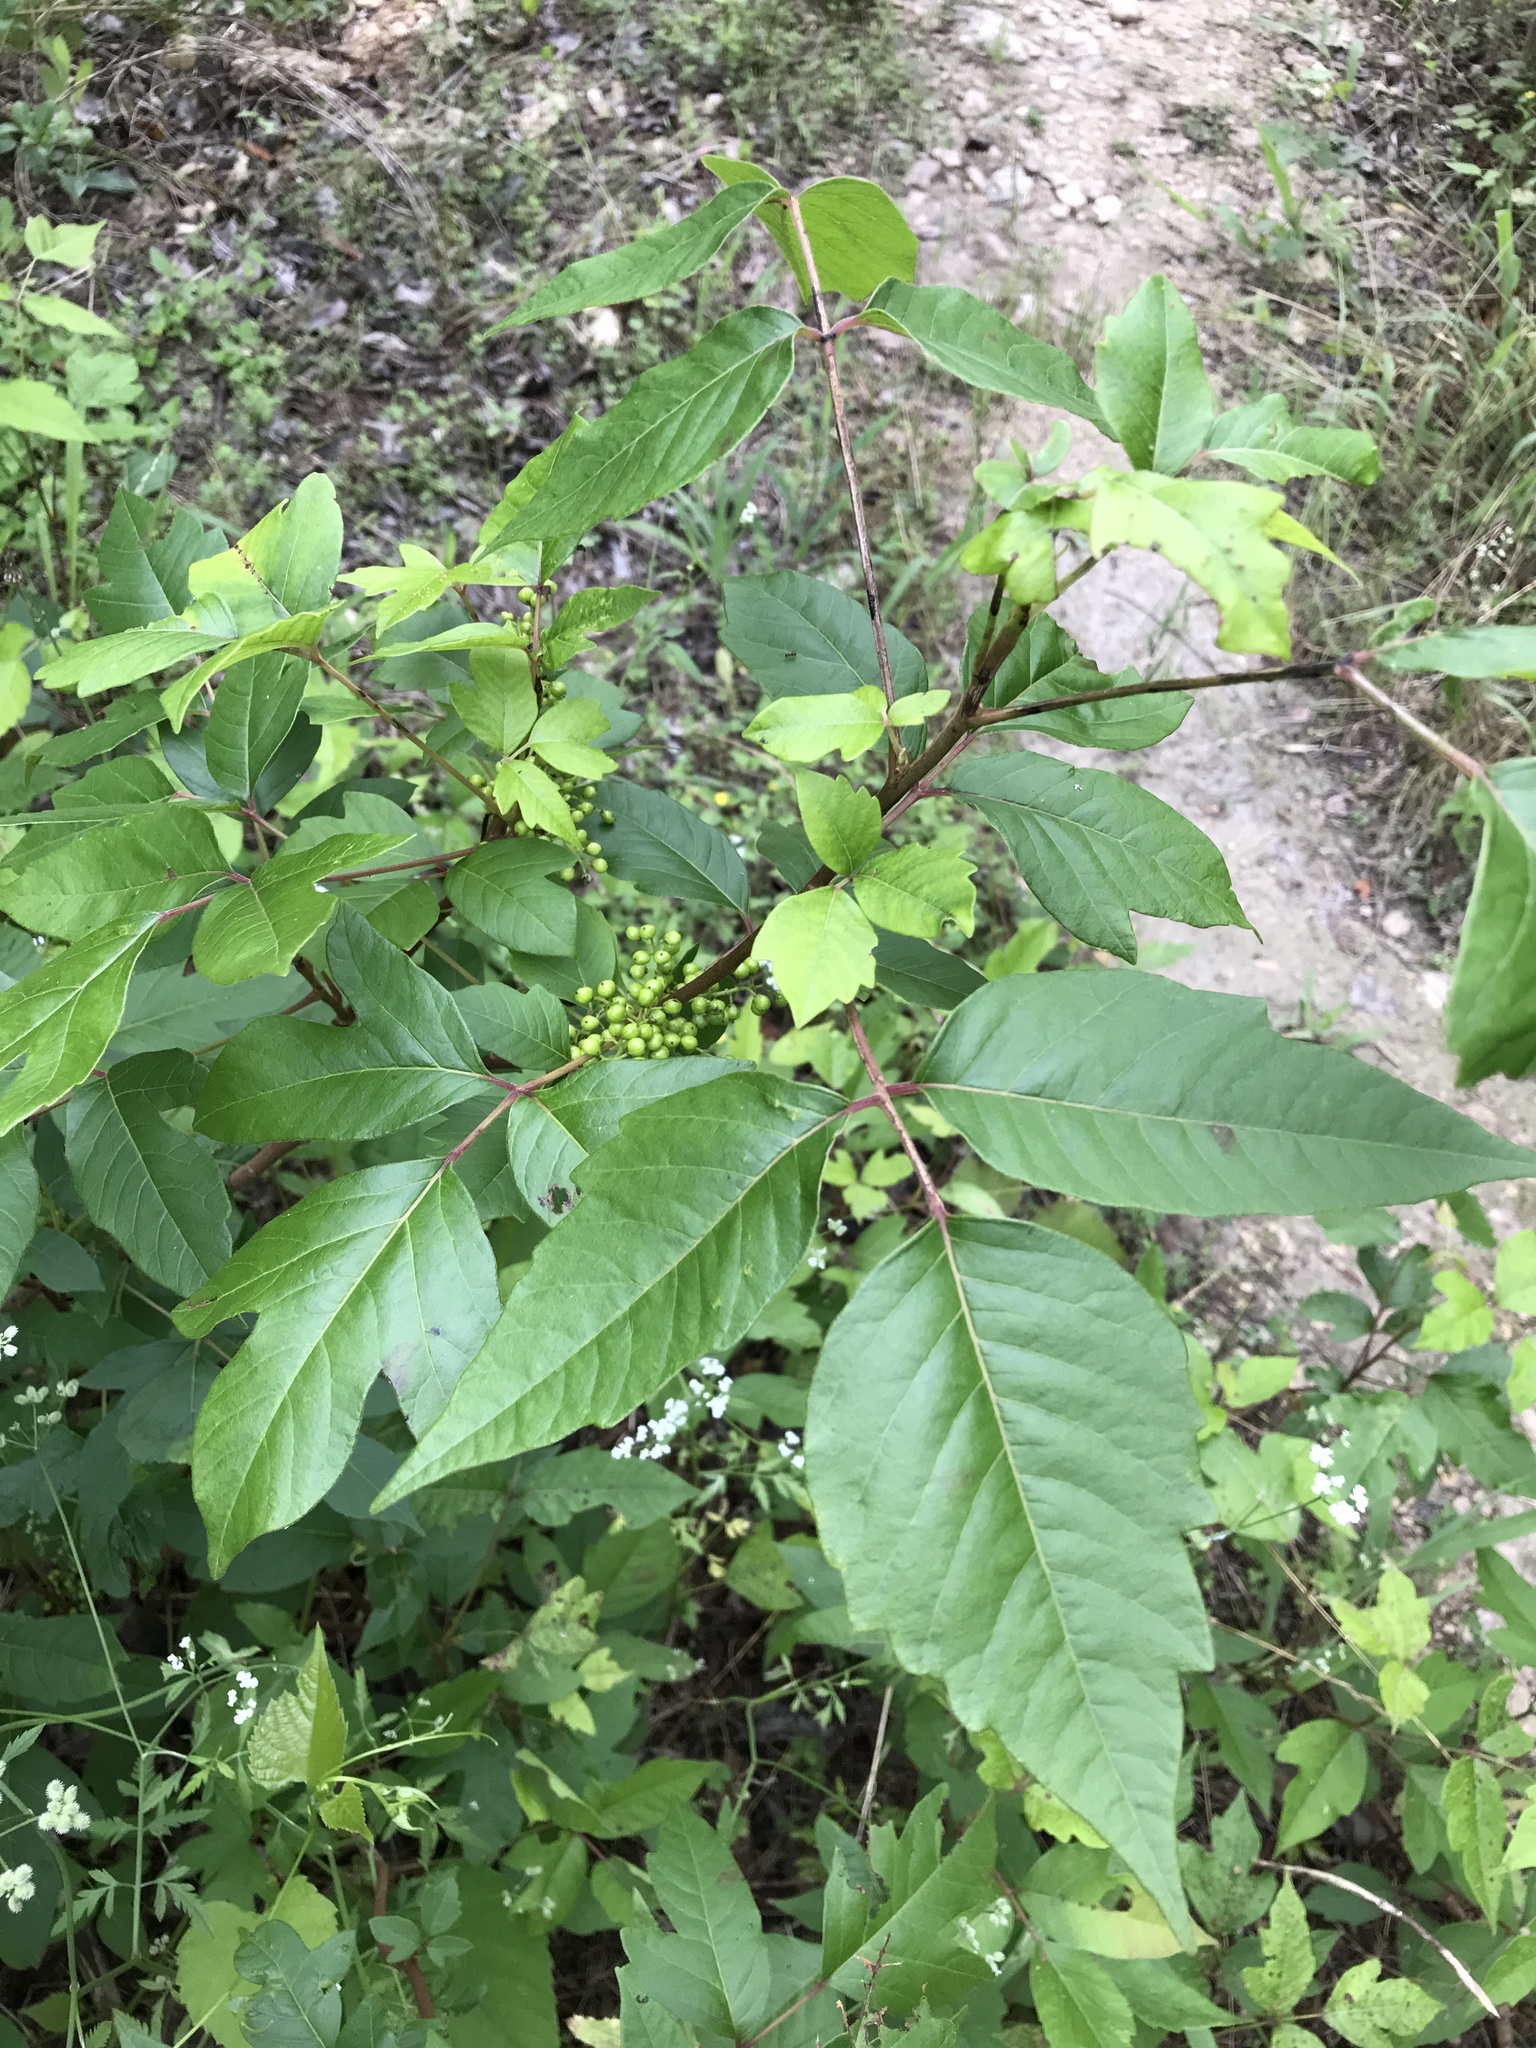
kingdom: Plantae
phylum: Tracheophyta
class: Magnoliopsida
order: Sapindales
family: Anacardiaceae
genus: Toxicodendron
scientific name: Toxicodendron radicans
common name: Poison ivy
